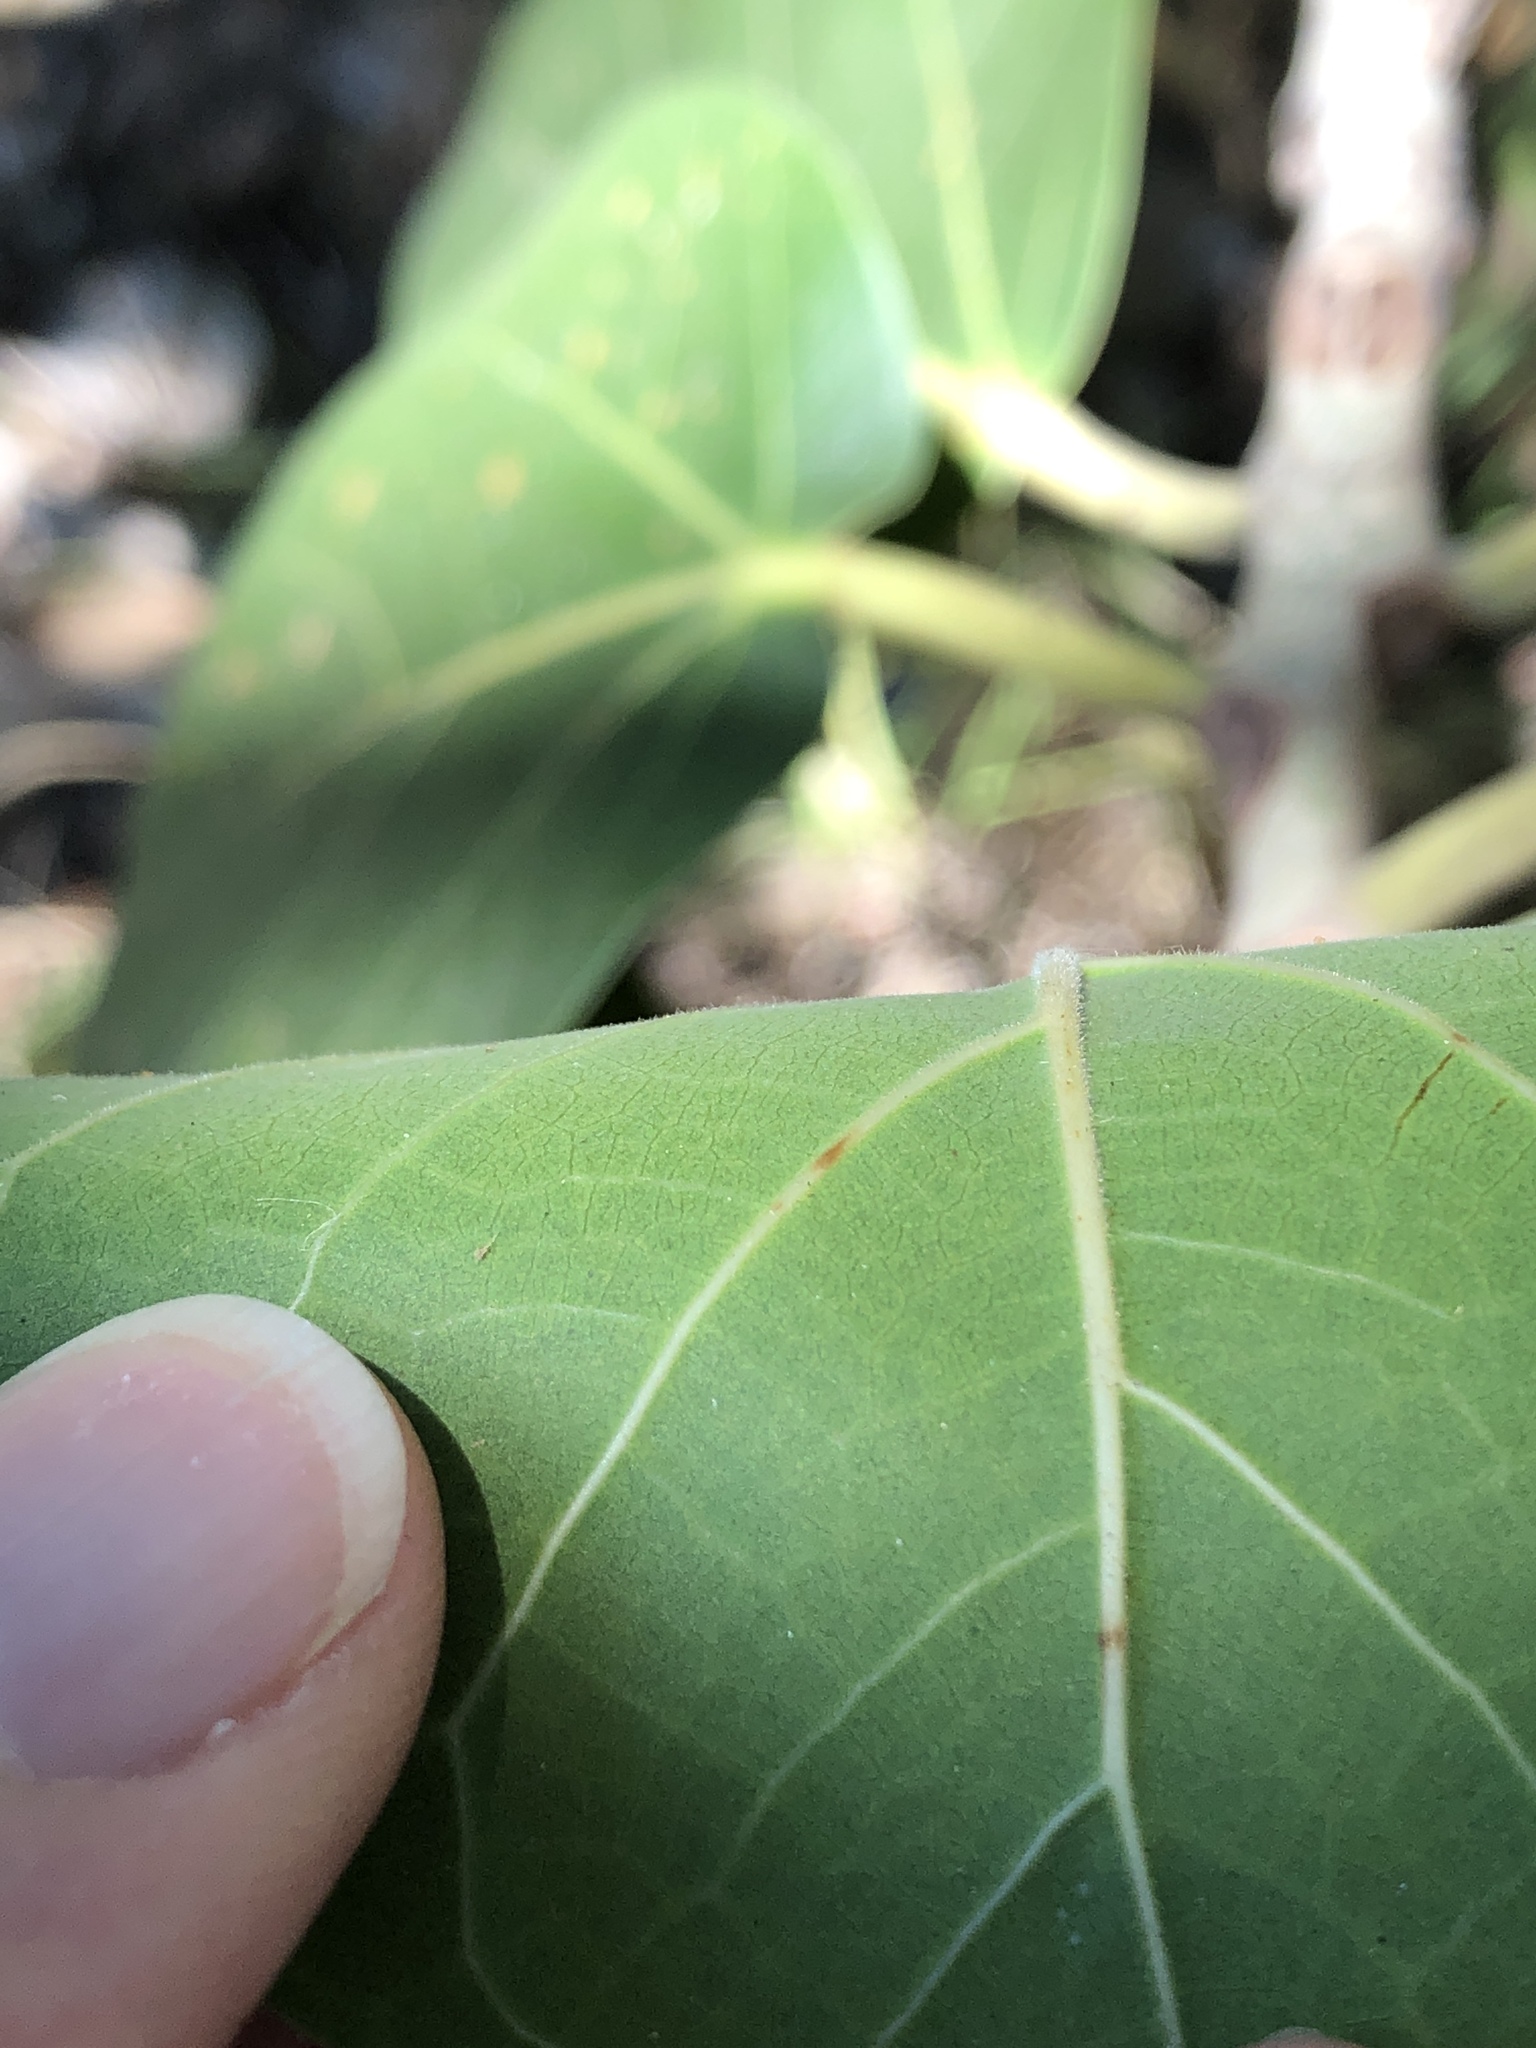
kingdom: Plantae
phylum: Tracheophyta
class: Magnoliopsida
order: Rosales
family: Moraceae
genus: Ficus
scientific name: Ficus benghalensis
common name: Indian banyan
